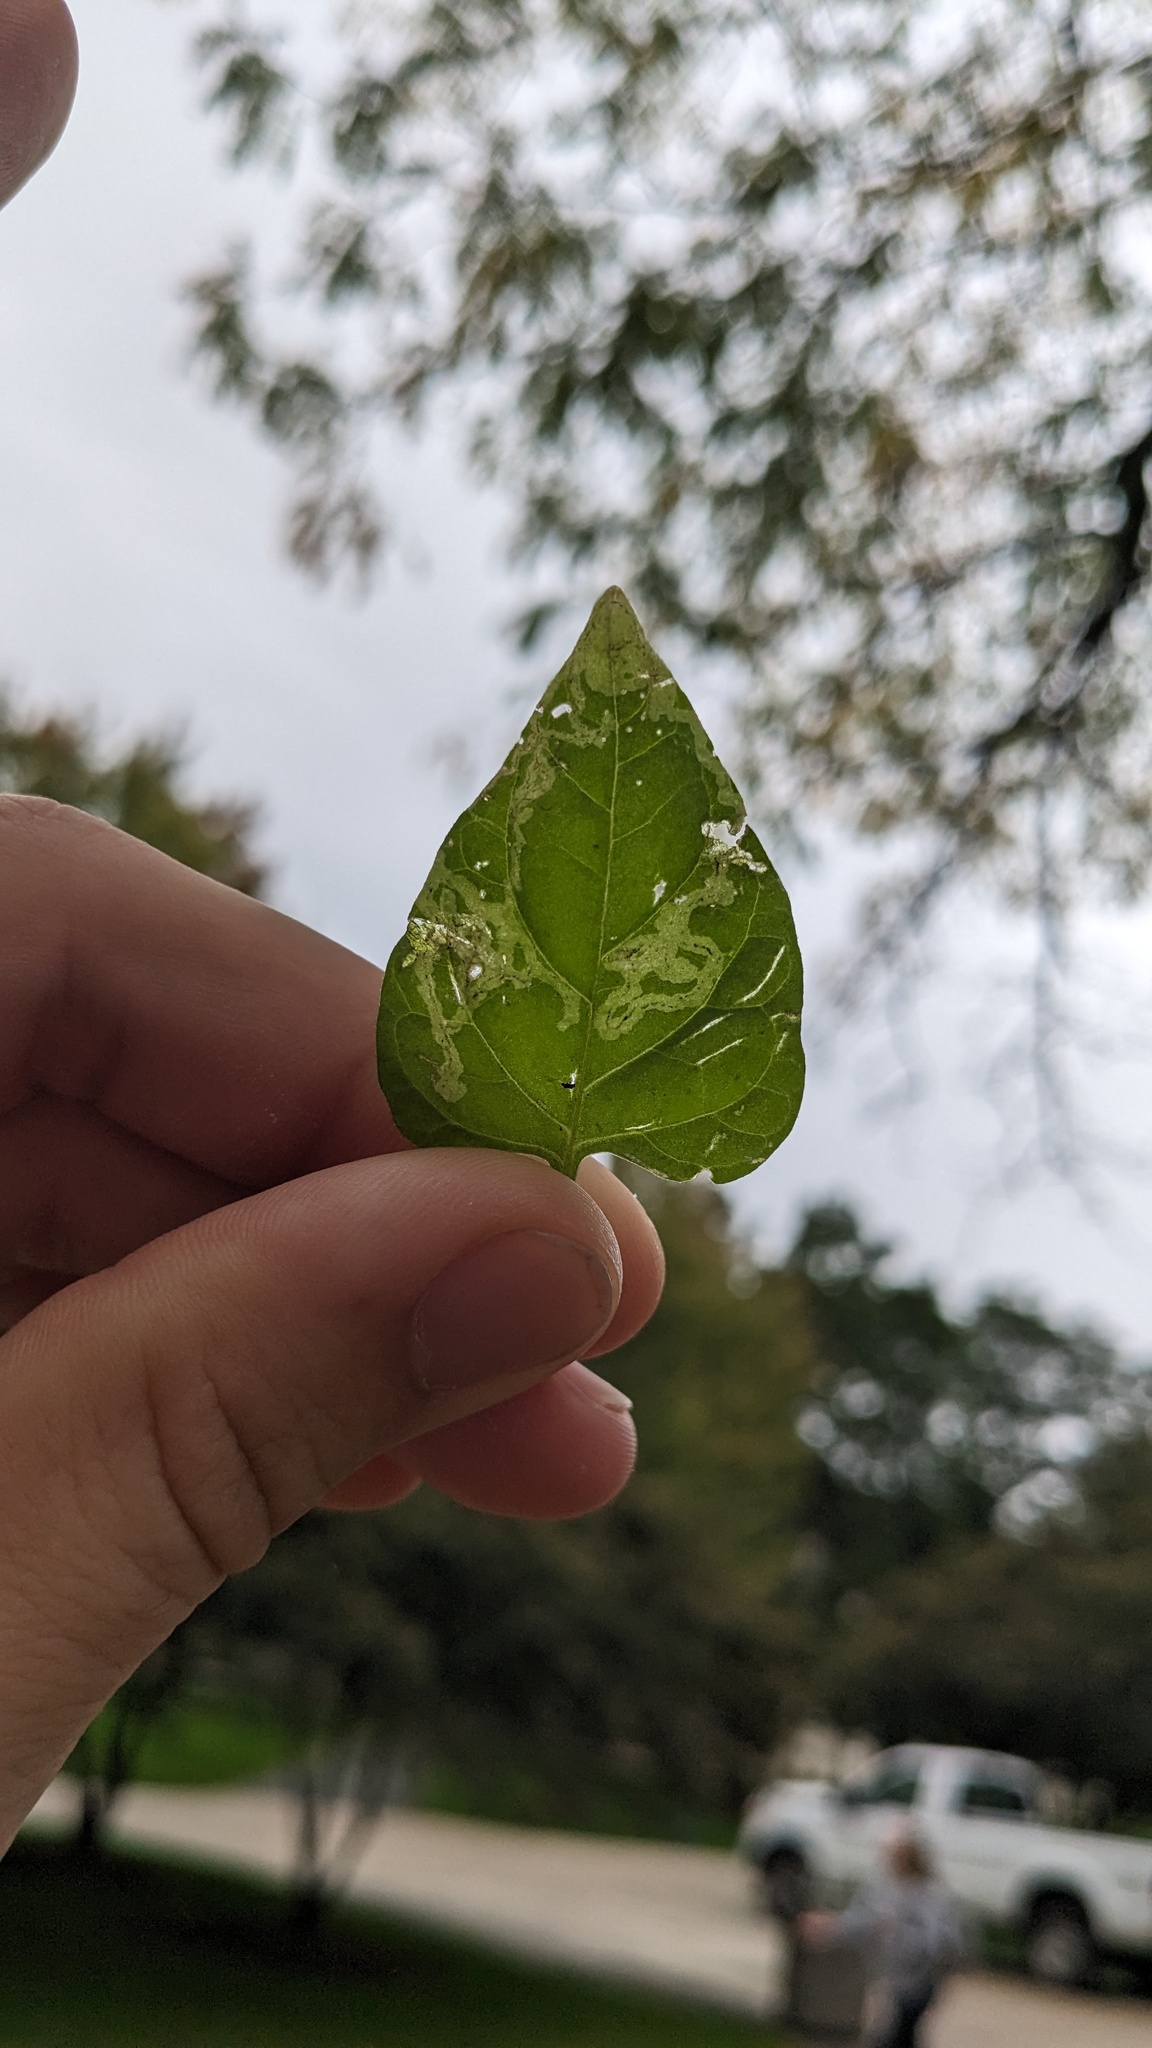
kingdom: Animalia
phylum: Arthropoda
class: Insecta
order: Diptera
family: Agromyzidae
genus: Liriomyza
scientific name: Liriomyza
